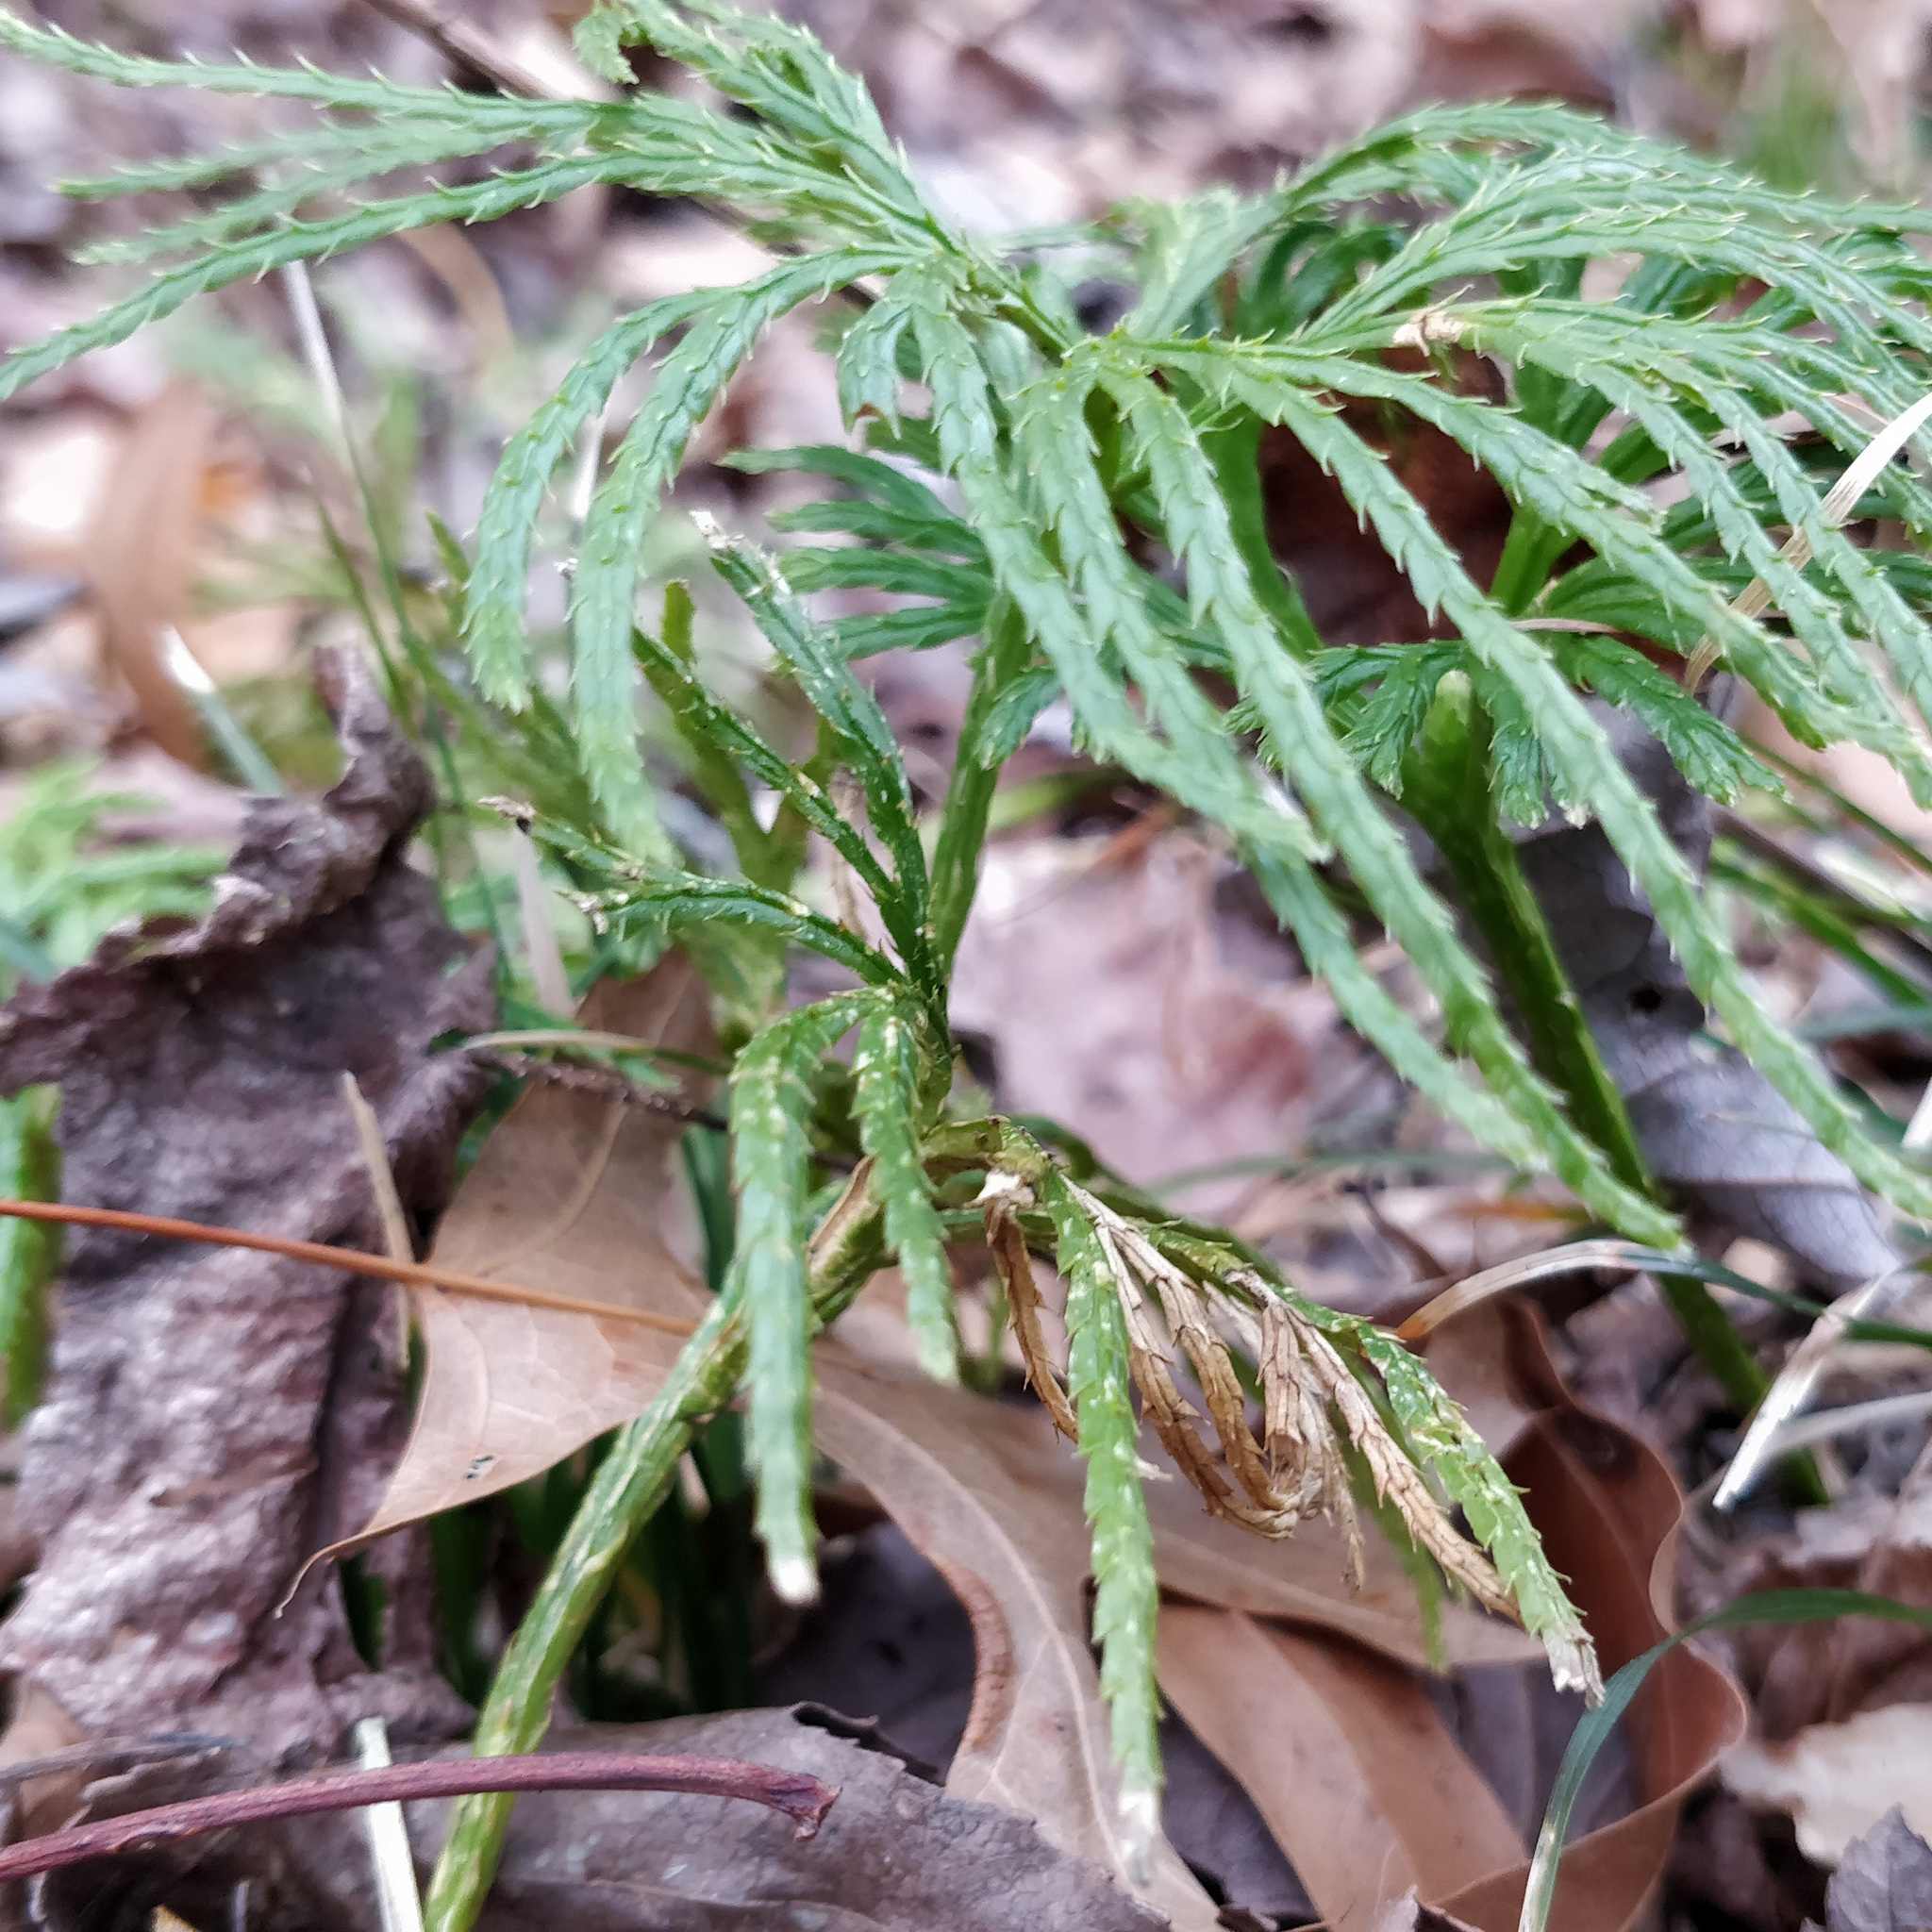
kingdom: Plantae
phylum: Tracheophyta
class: Lycopodiopsida
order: Lycopodiales
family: Lycopodiaceae
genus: Diphasiastrum
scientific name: Diphasiastrum digitatum
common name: Southern running-pine
